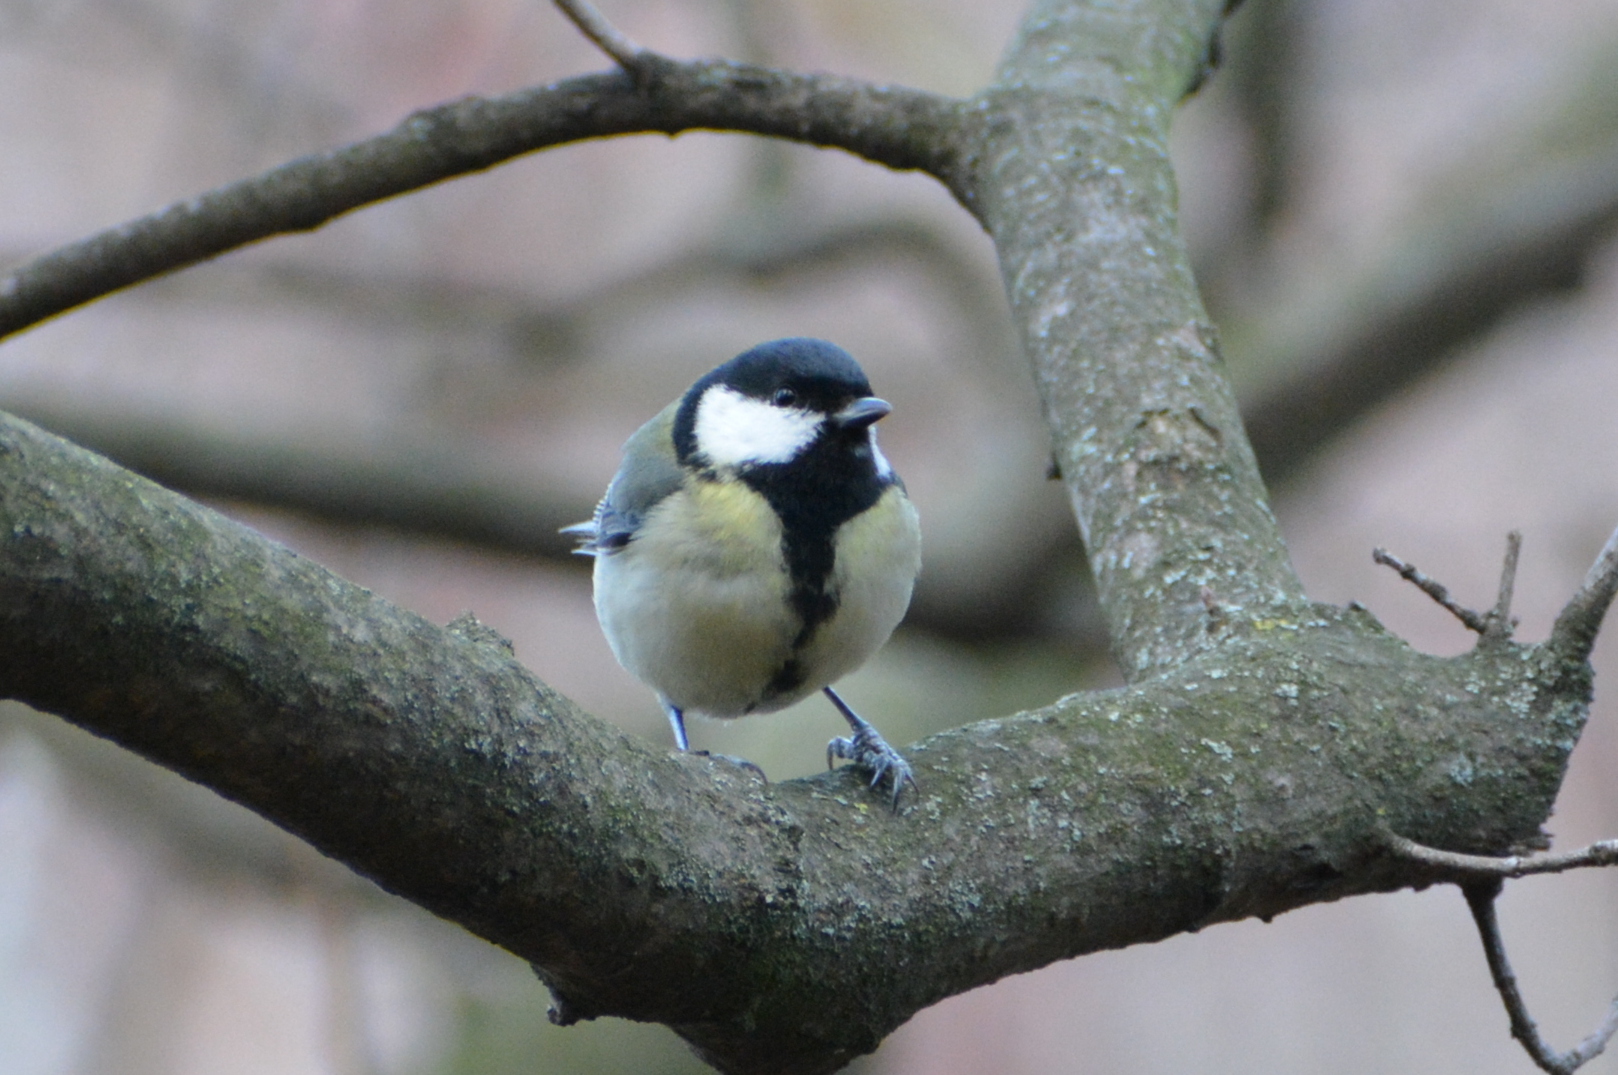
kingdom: Animalia
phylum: Chordata
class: Aves
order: Passeriformes
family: Paridae
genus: Parus
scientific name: Parus major
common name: Great tit
